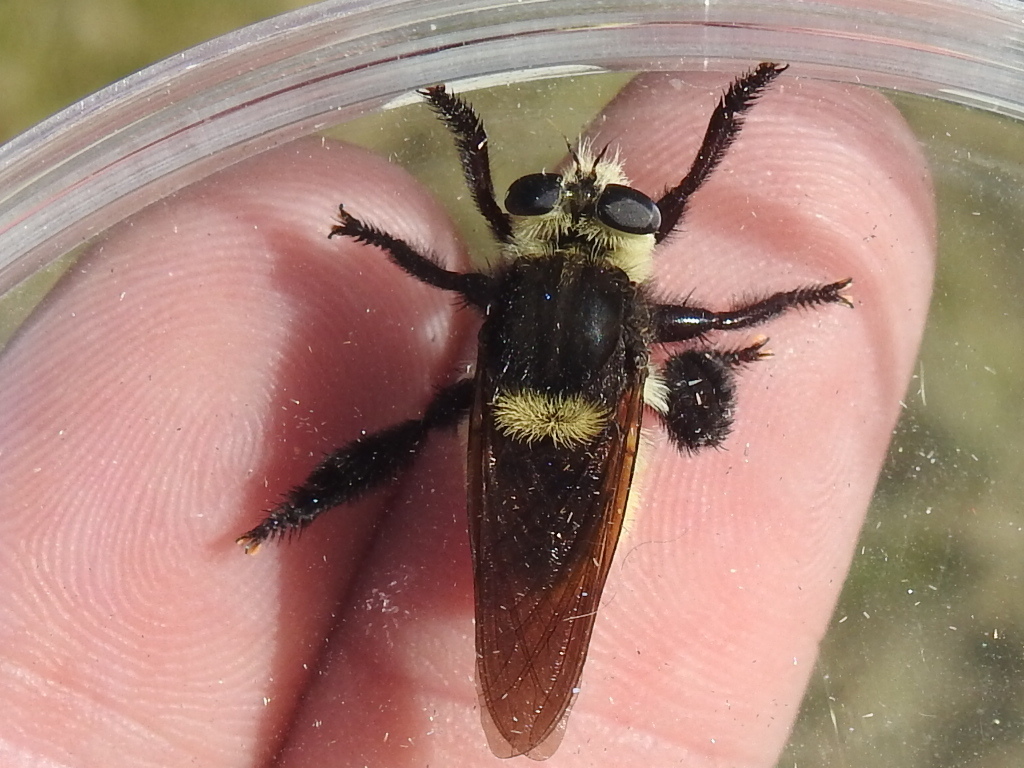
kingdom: Animalia
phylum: Arthropoda
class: Insecta
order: Diptera
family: Asilidae
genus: Mallophora
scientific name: Mallophora fautrix
